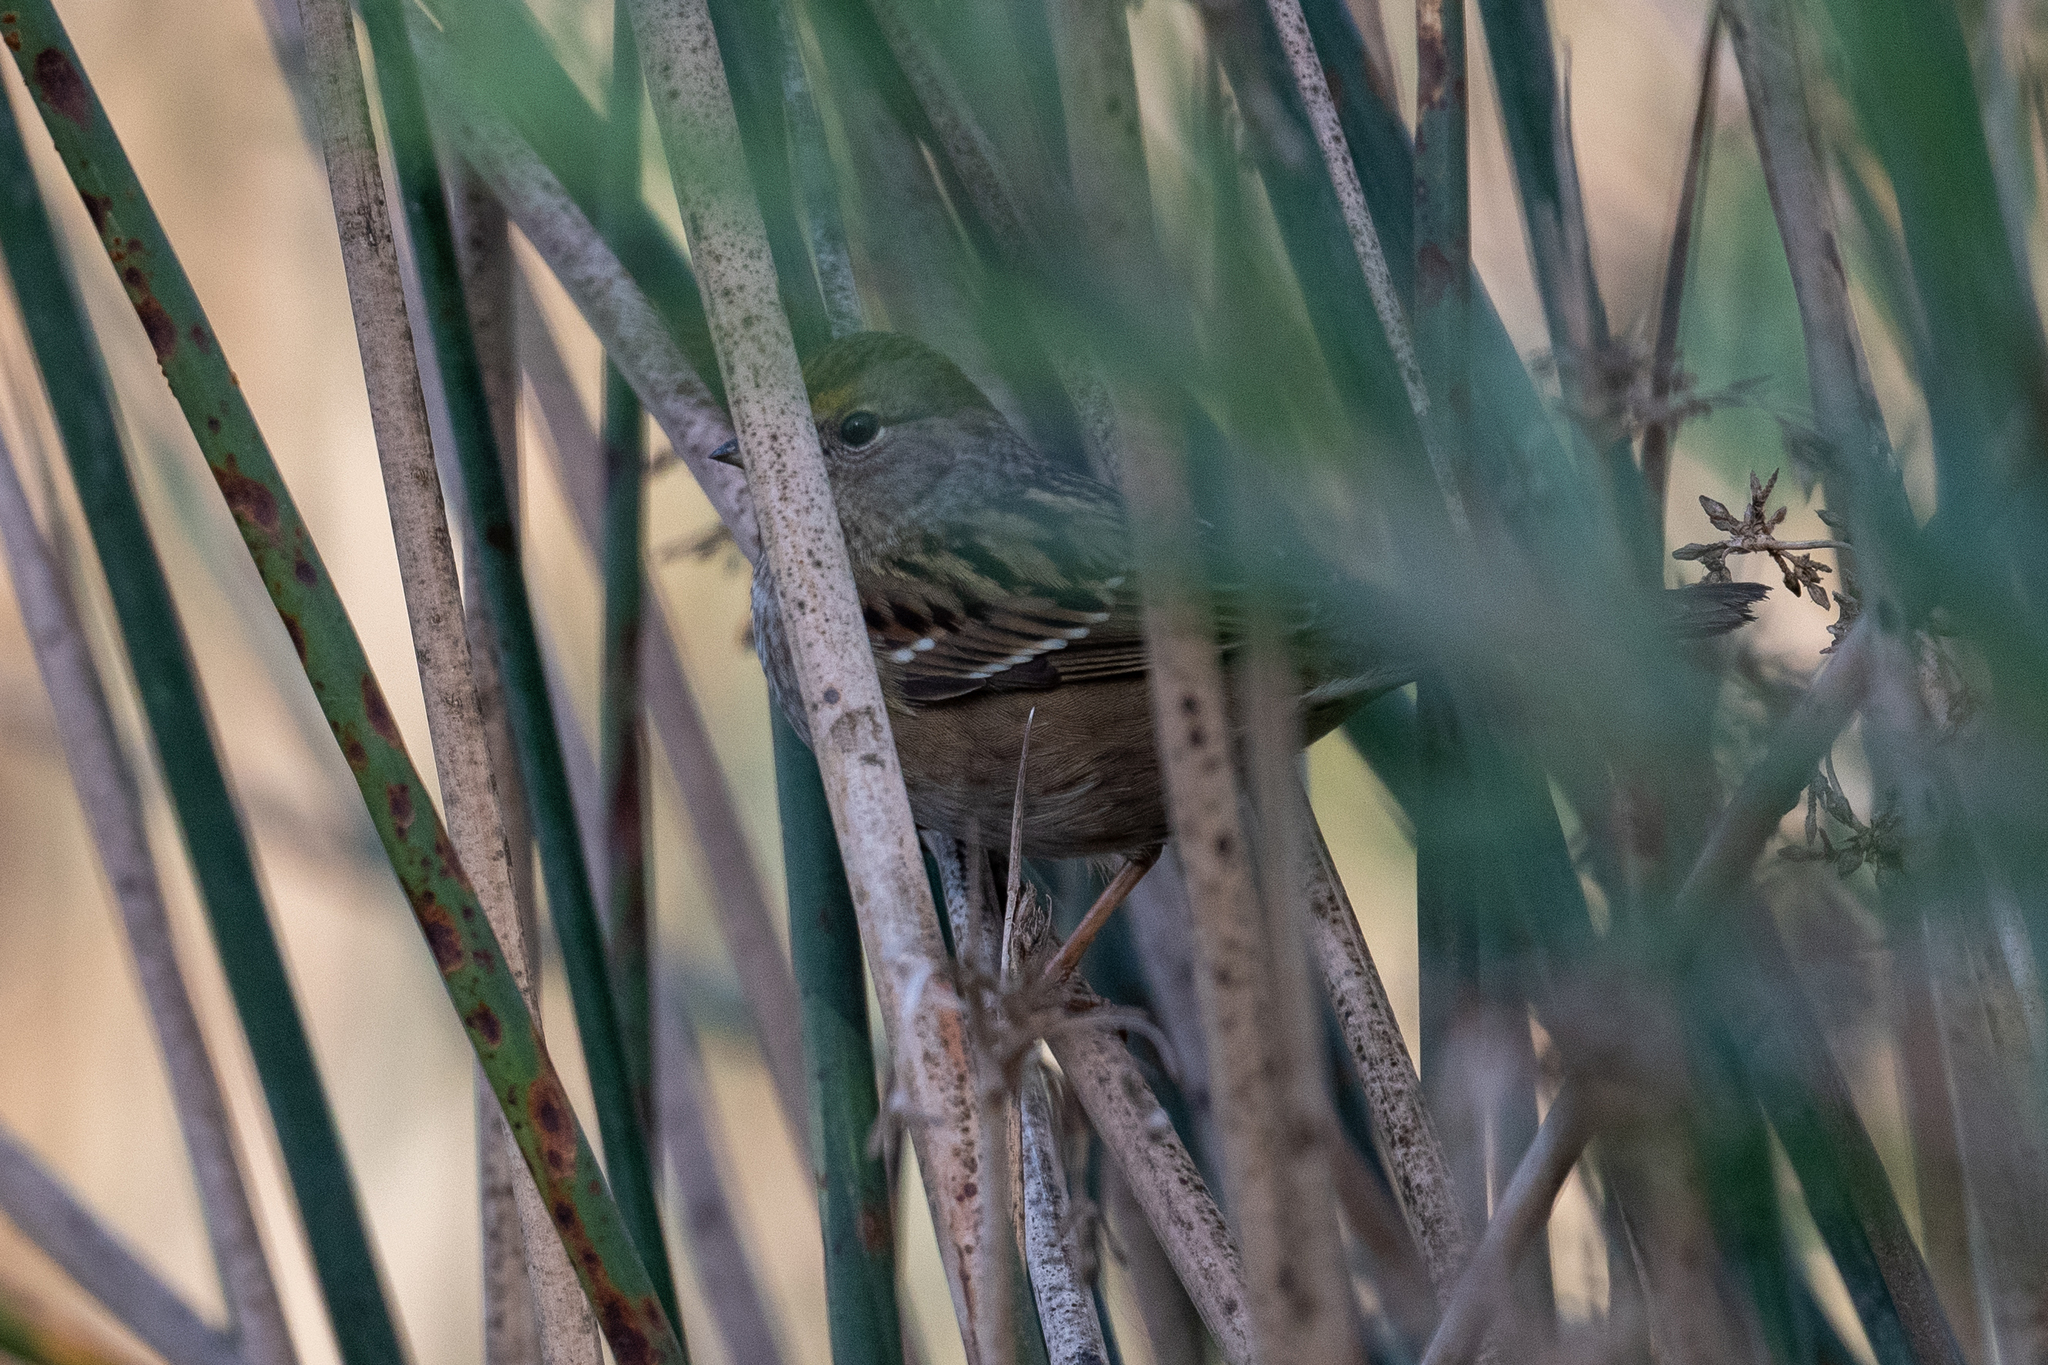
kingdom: Animalia
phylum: Chordata
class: Aves
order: Passeriformes
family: Passerellidae
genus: Zonotrichia
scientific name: Zonotrichia atricapilla
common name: Golden-crowned sparrow
